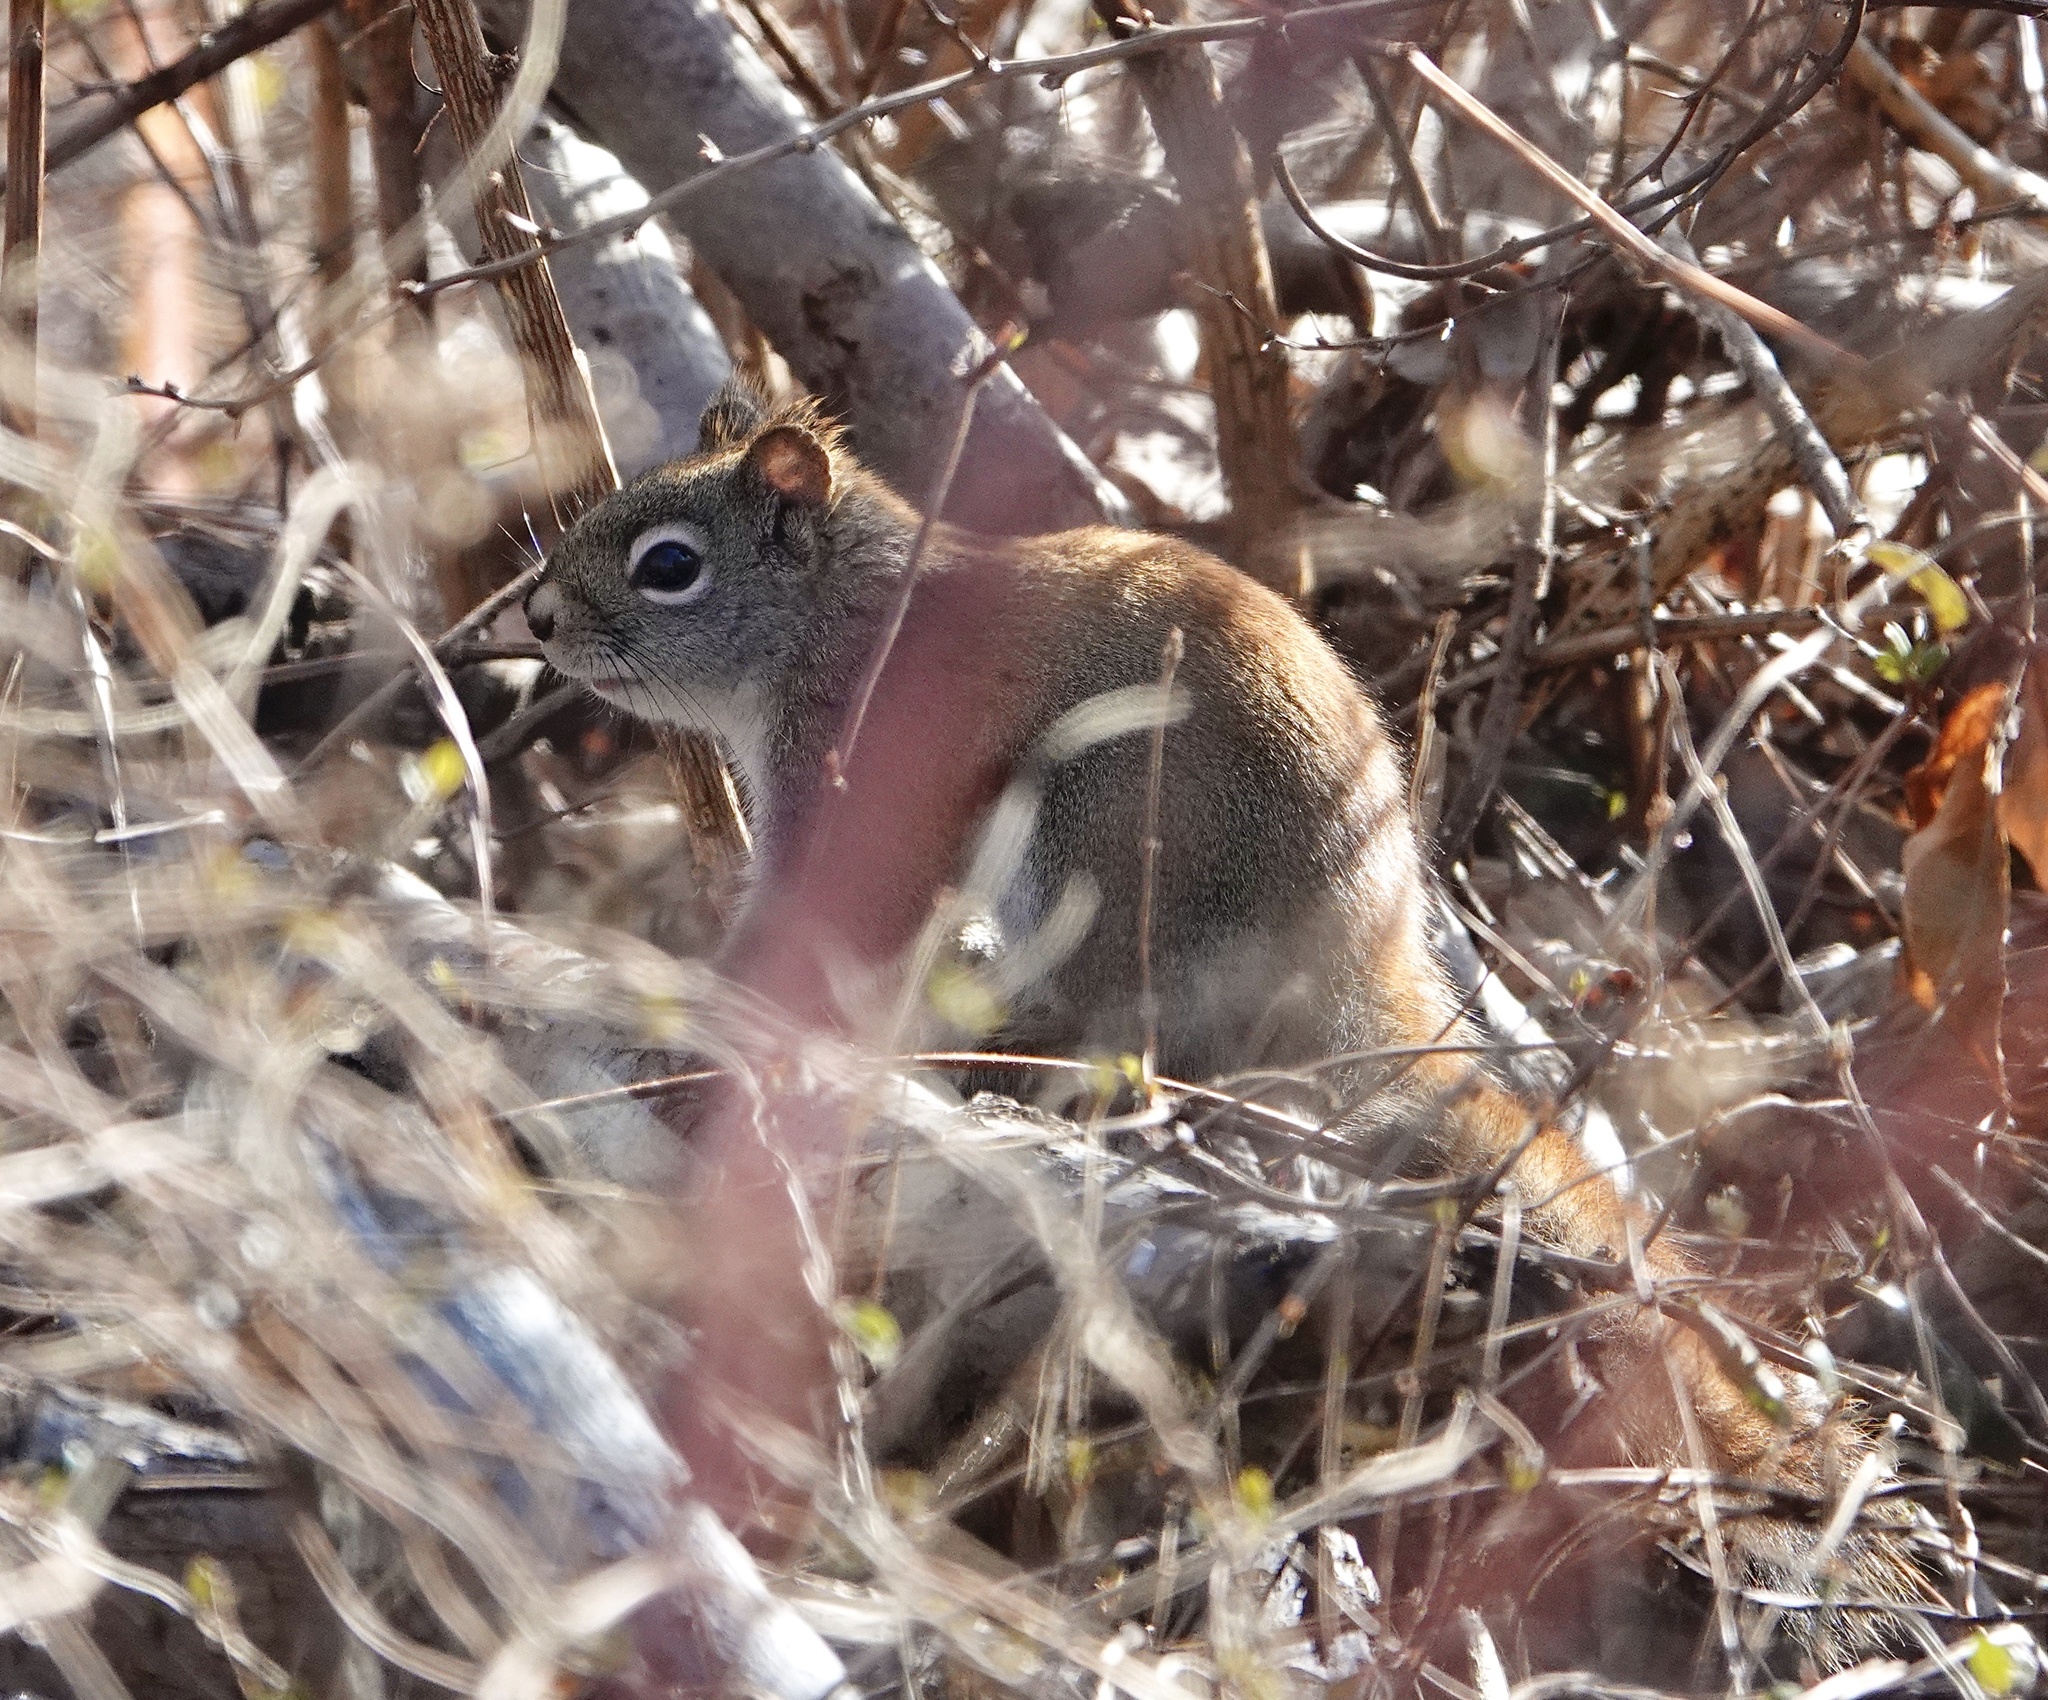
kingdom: Animalia
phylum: Chordata
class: Mammalia
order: Rodentia
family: Sciuridae
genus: Tamiasciurus
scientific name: Tamiasciurus hudsonicus
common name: Red squirrel
